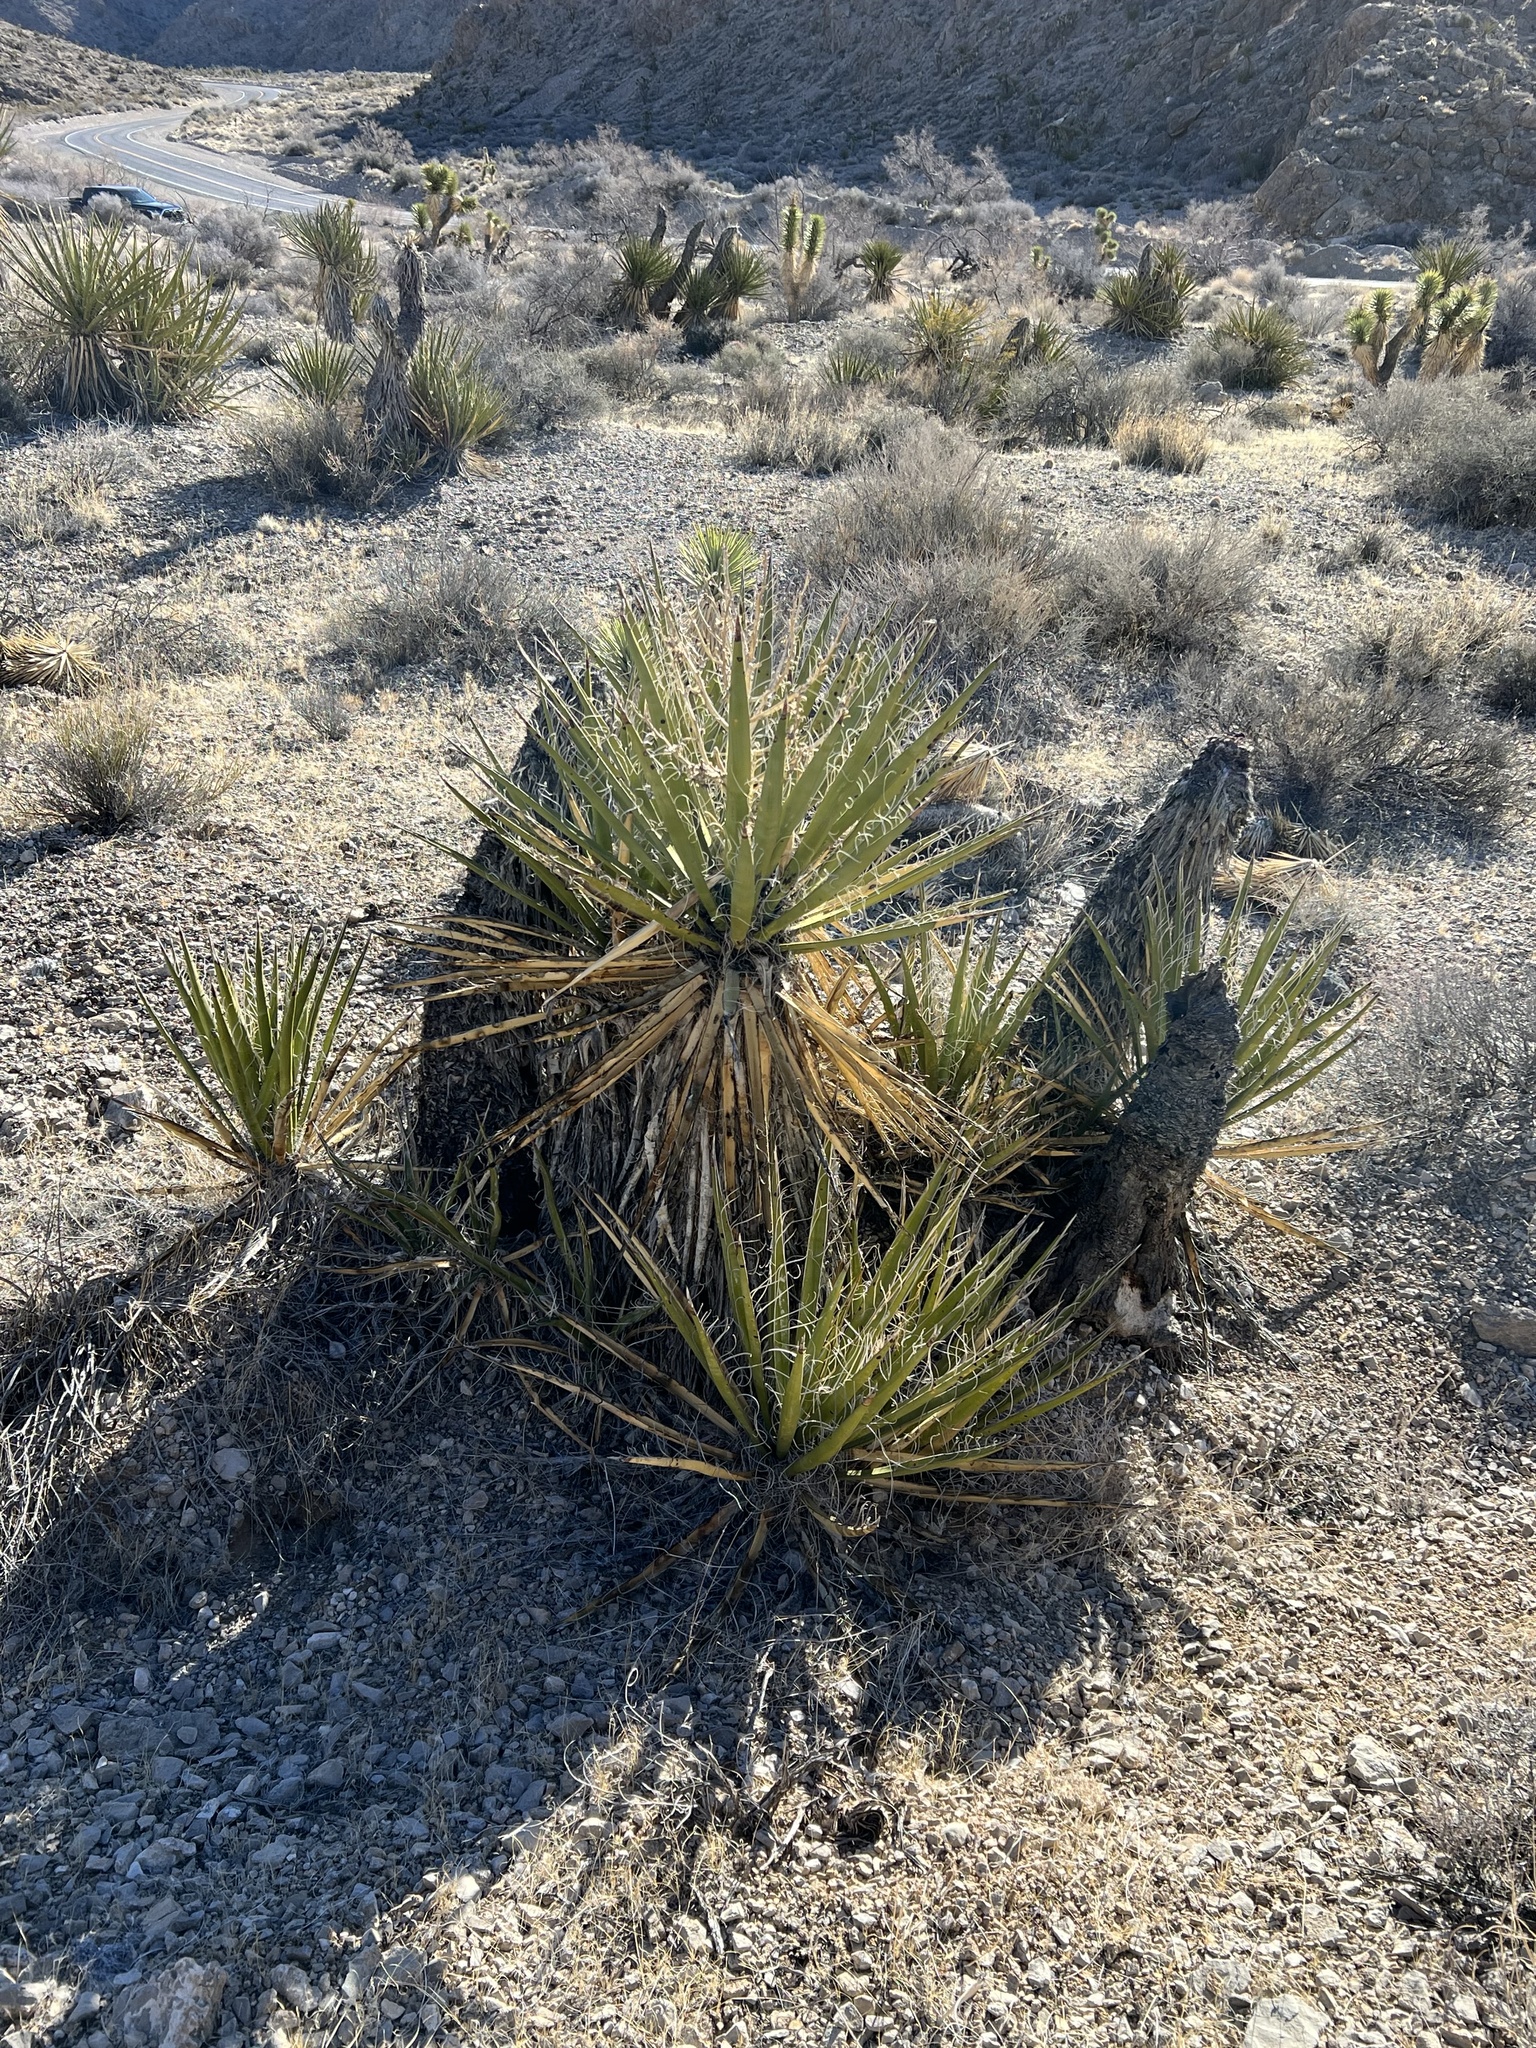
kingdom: Plantae
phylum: Tracheophyta
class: Liliopsida
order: Asparagales
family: Asparagaceae
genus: Yucca
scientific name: Yucca schidigera
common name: Mojave yucca
